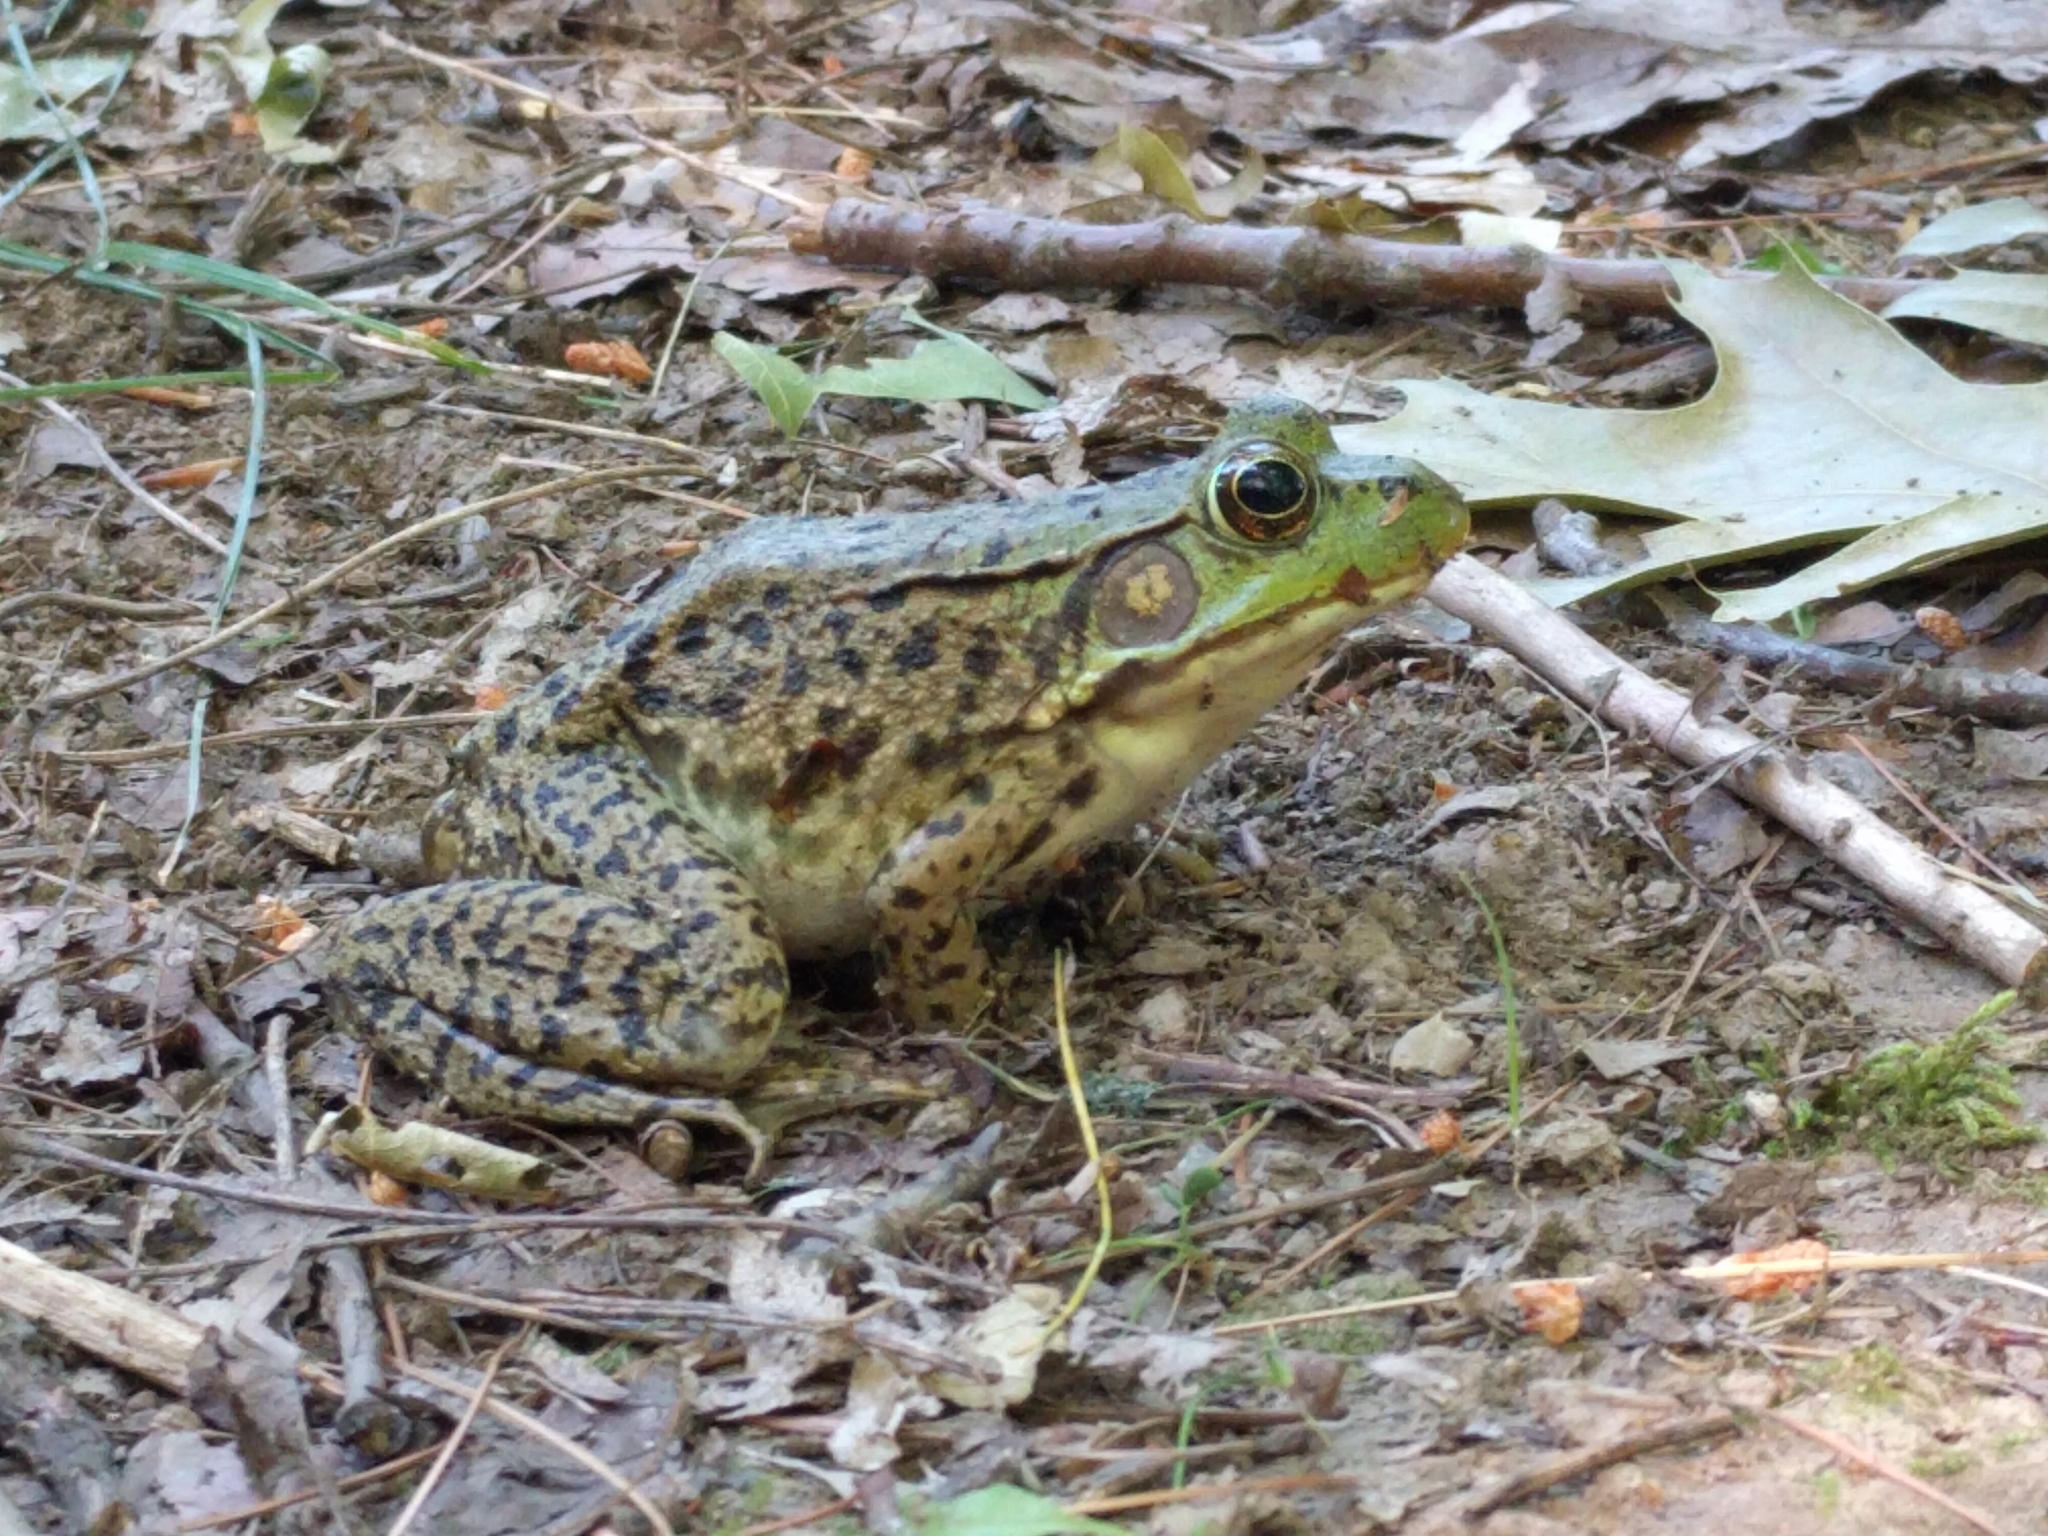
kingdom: Animalia
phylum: Chordata
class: Amphibia
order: Anura
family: Ranidae
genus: Lithobates
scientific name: Lithobates clamitans
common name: Green frog
